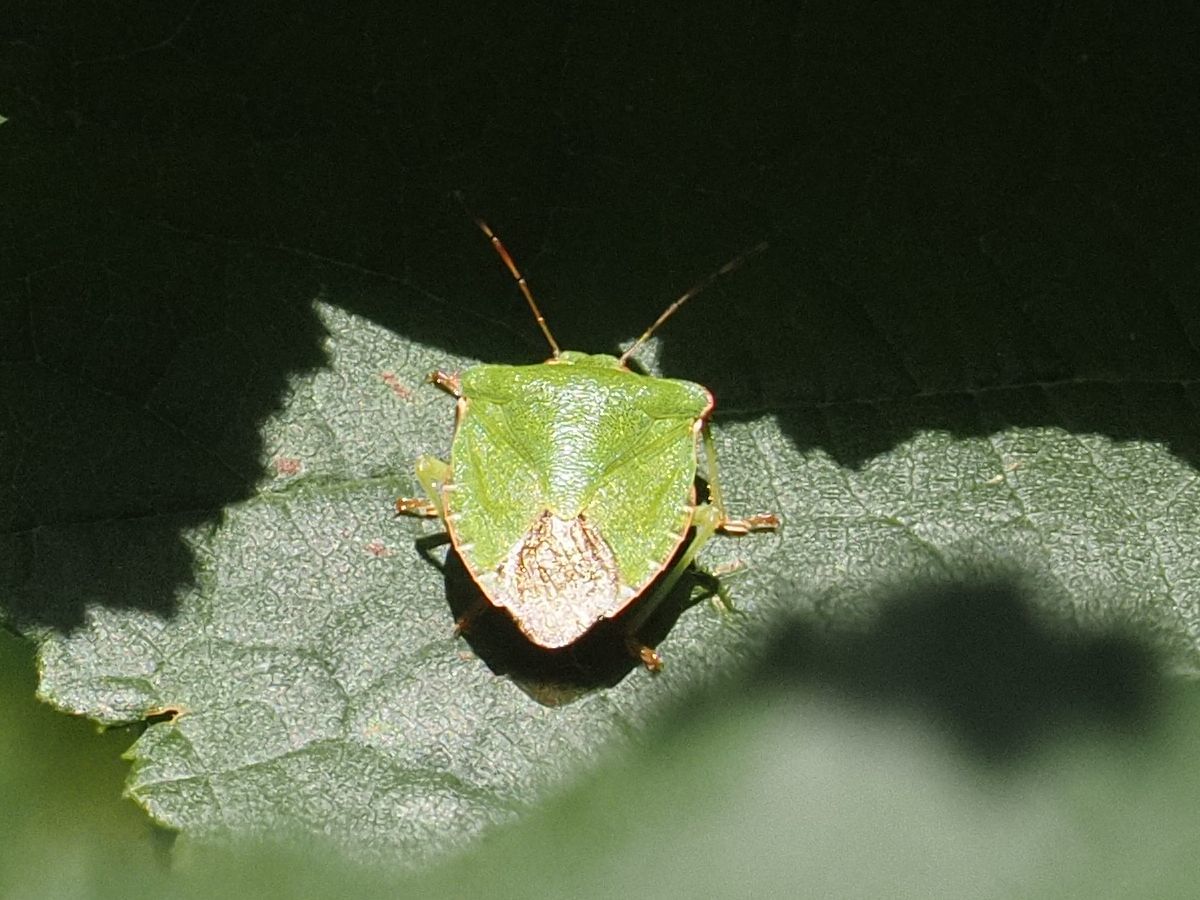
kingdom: Animalia
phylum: Arthropoda
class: Insecta
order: Hemiptera
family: Pentatomidae
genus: Palomena
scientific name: Palomena prasina
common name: Green shieldbug
